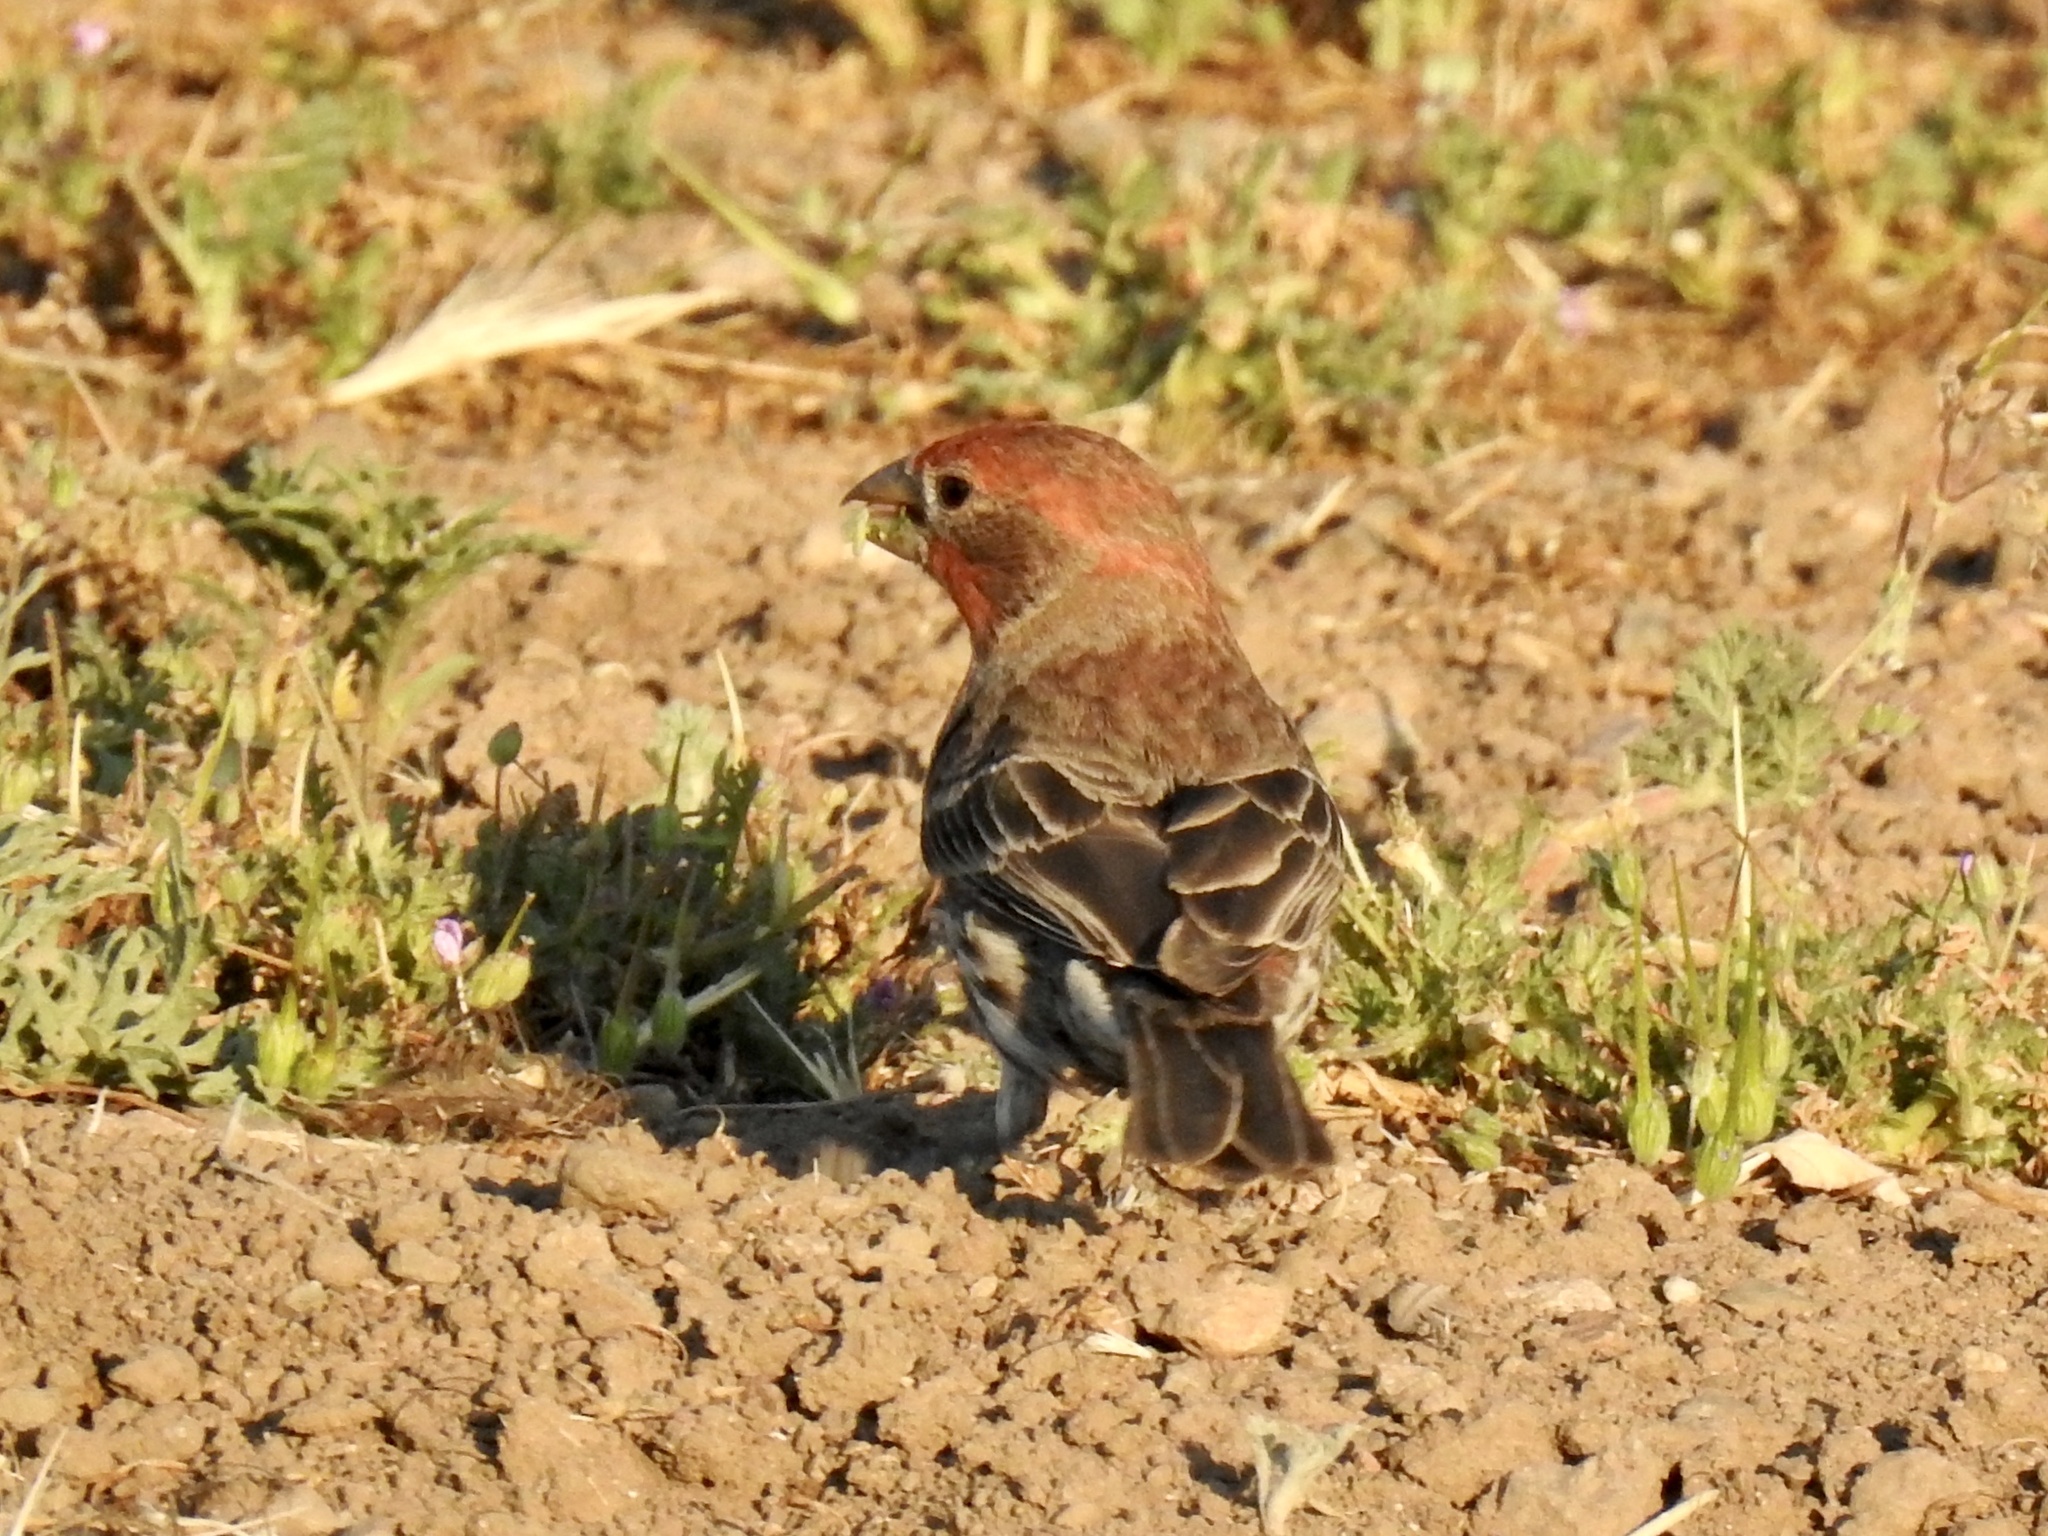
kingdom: Animalia
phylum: Chordata
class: Aves
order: Passeriformes
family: Fringillidae
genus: Haemorhous
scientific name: Haemorhous mexicanus
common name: House finch
